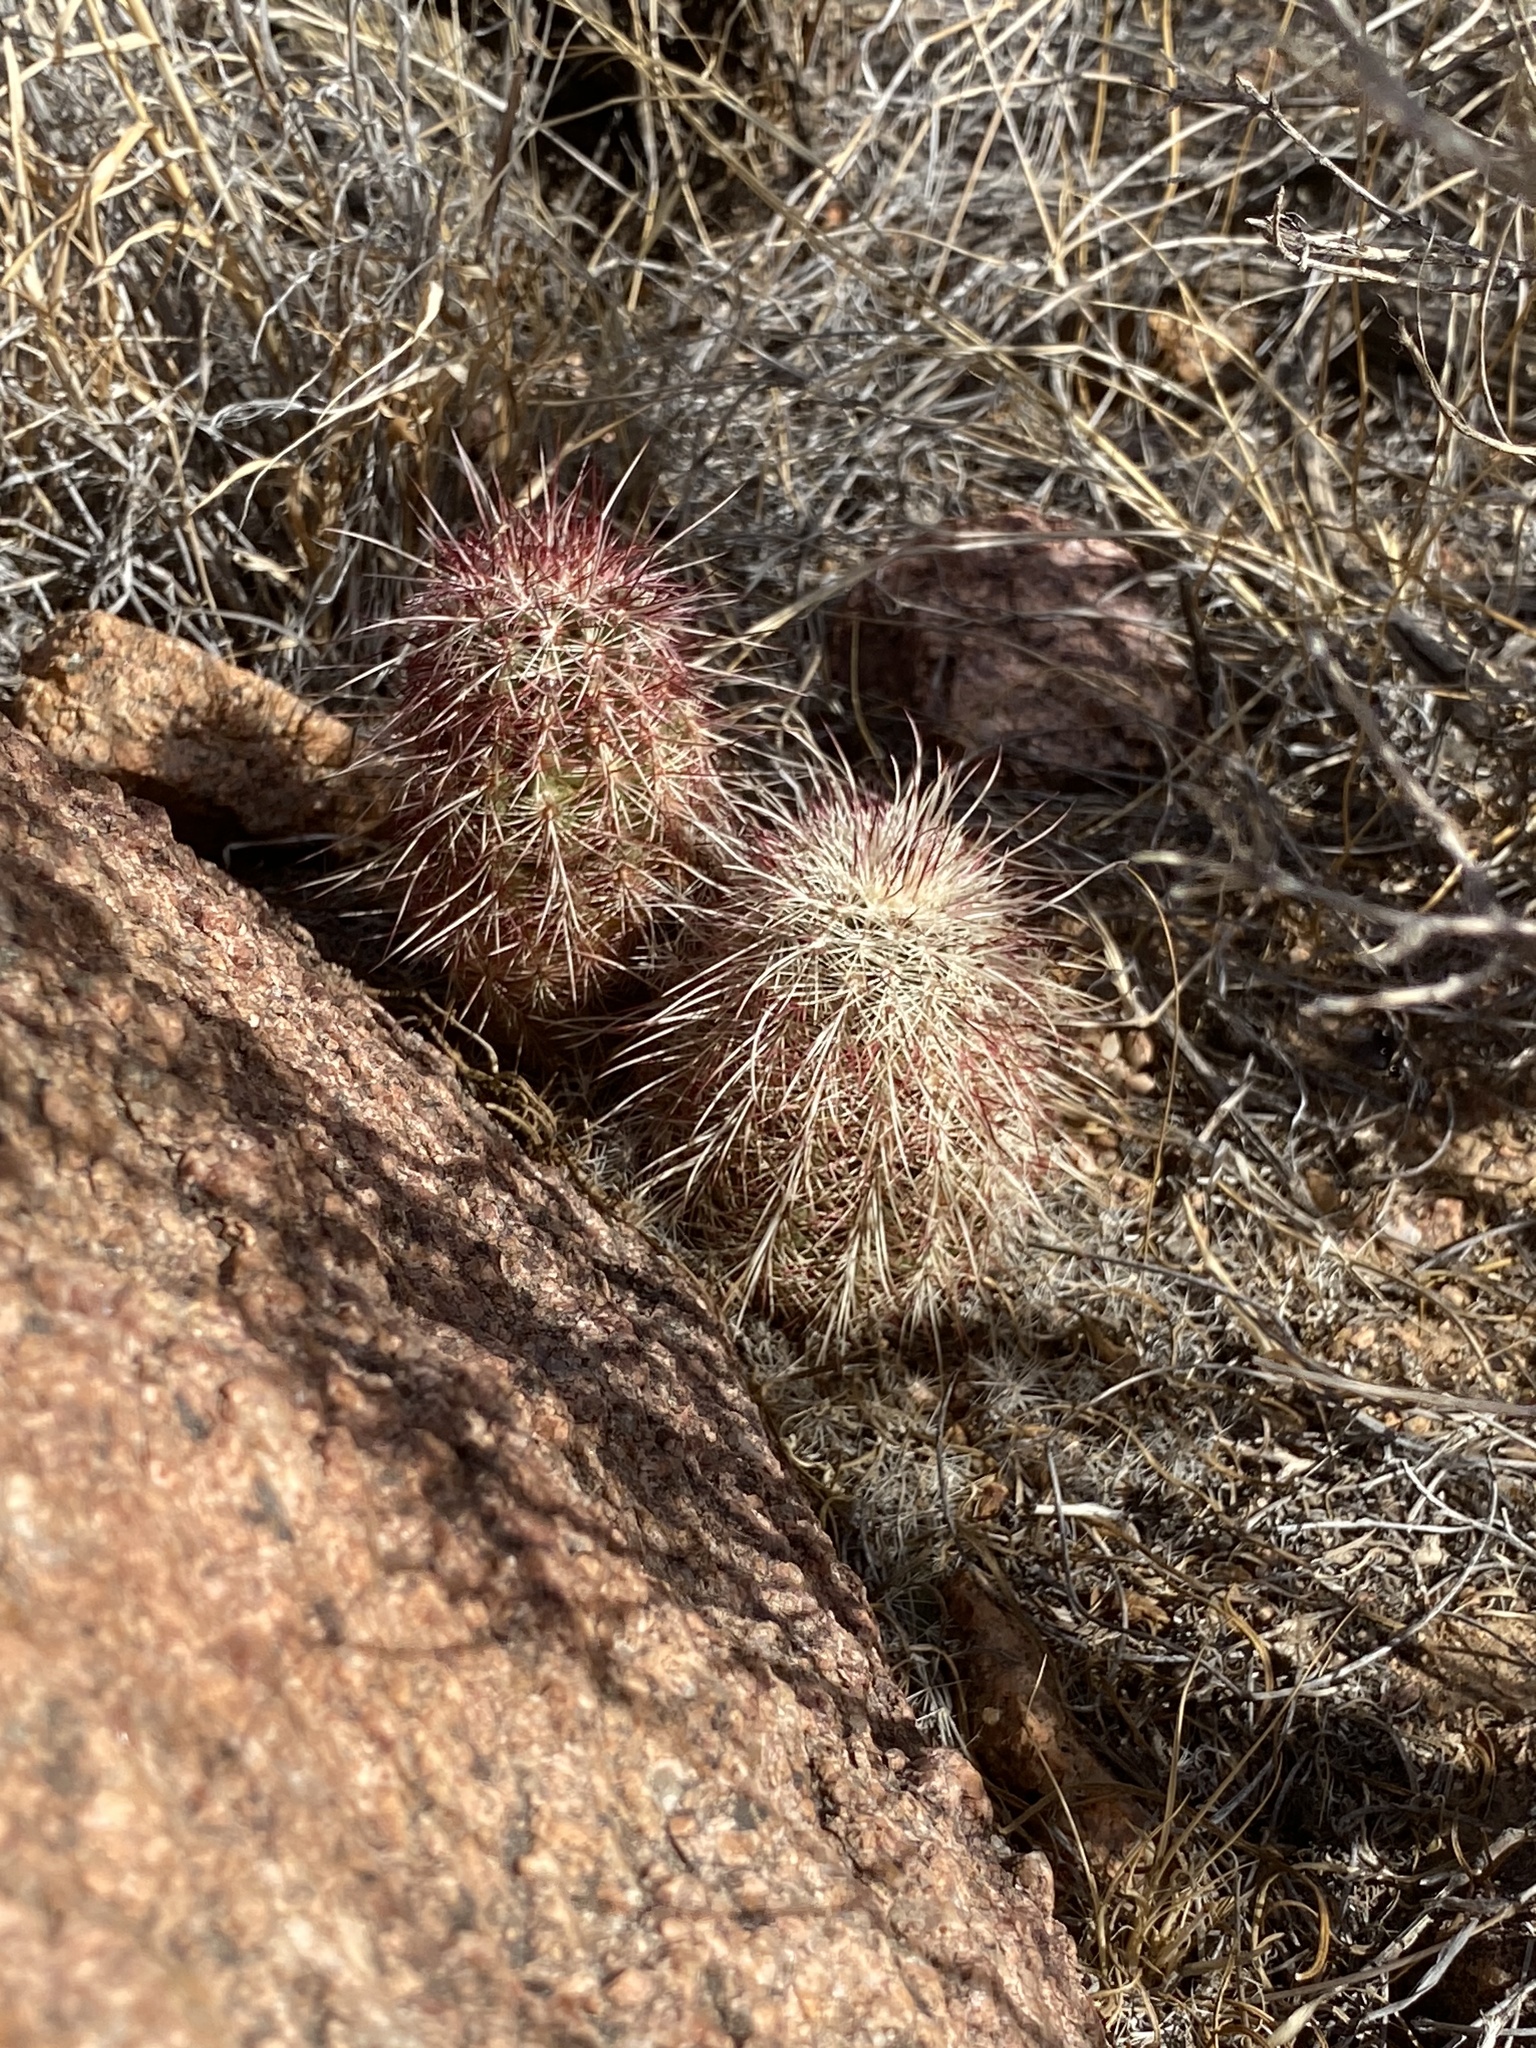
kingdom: Plantae
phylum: Tracheophyta
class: Magnoliopsida
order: Caryophyllales
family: Cactaceae
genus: Echinocereus
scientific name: Echinocereus viridiflorus
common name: Nylon hedgehog cactus
